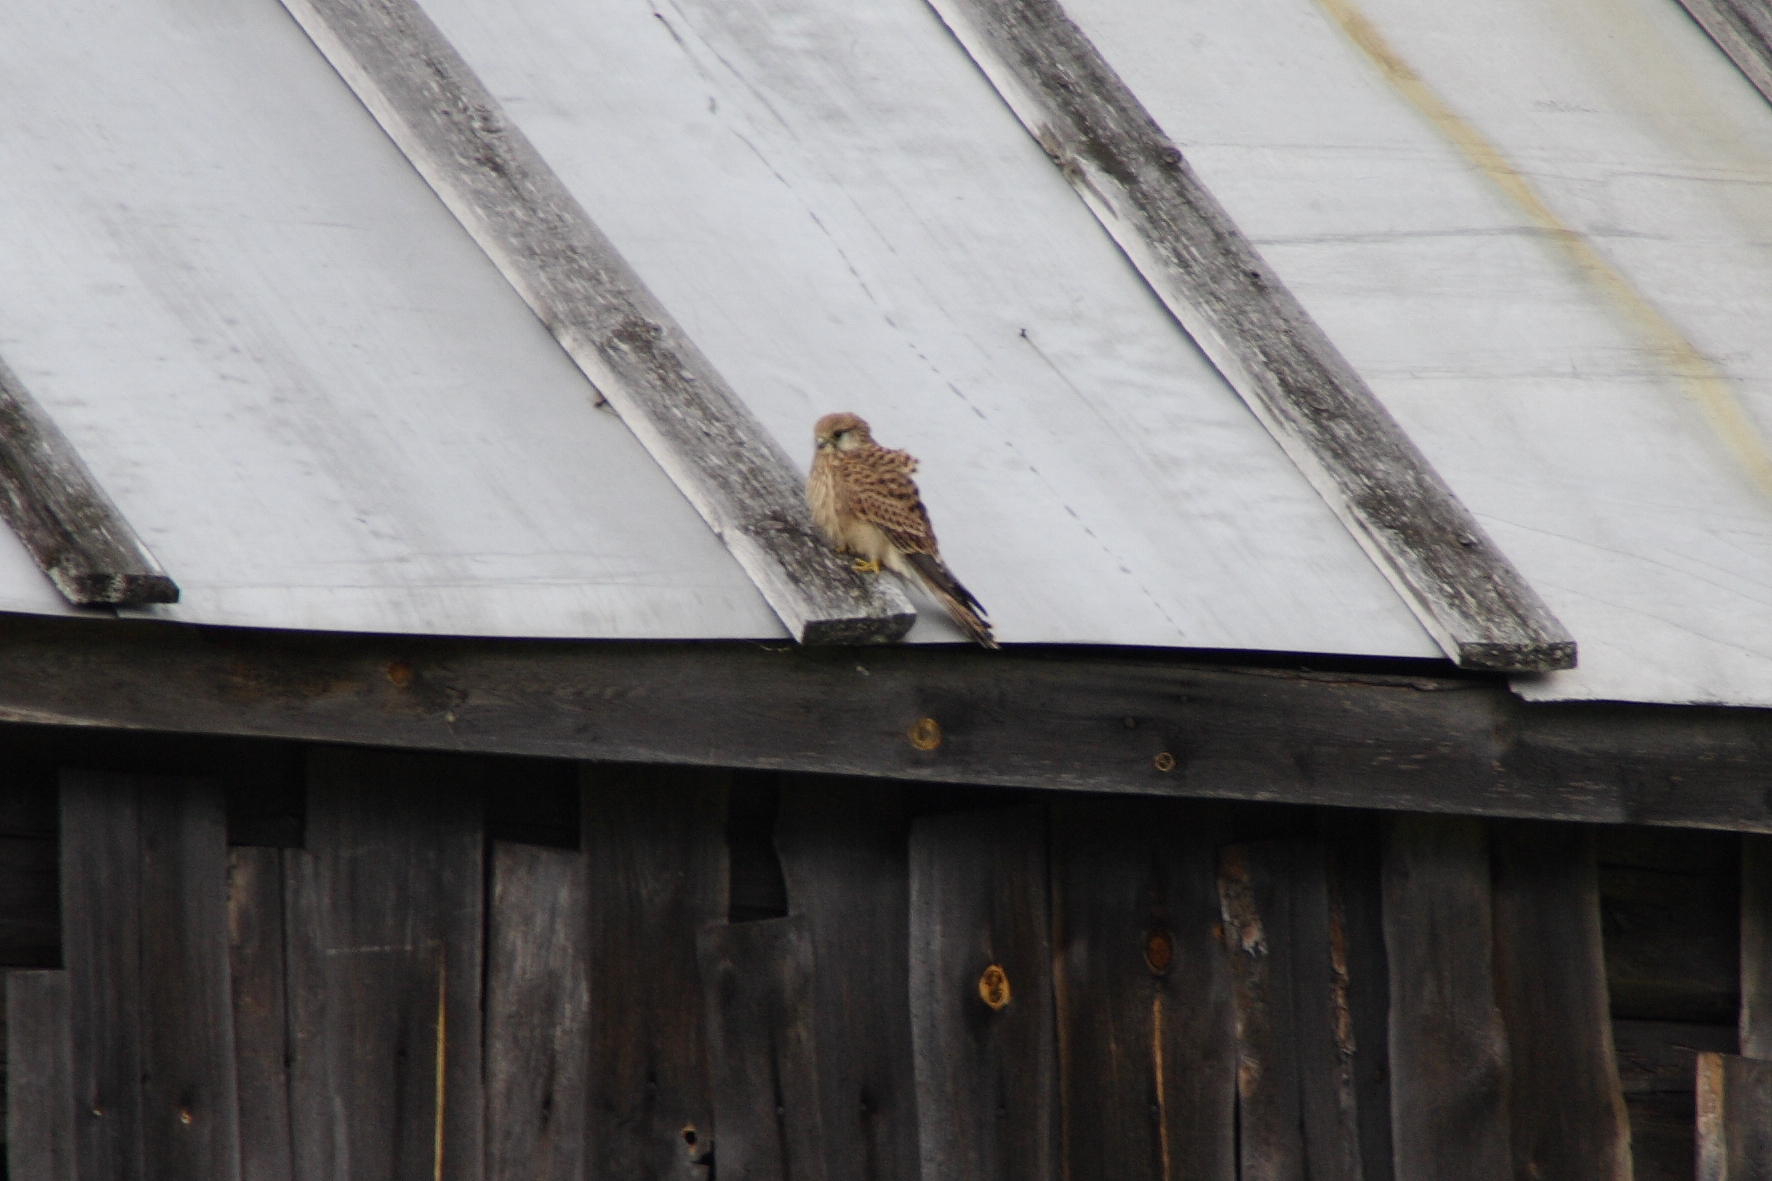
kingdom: Animalia
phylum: Chordata
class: Aves
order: Falconiformes
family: Falconidae
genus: Falco
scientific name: Falco tinnunculus
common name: Common kestrel
